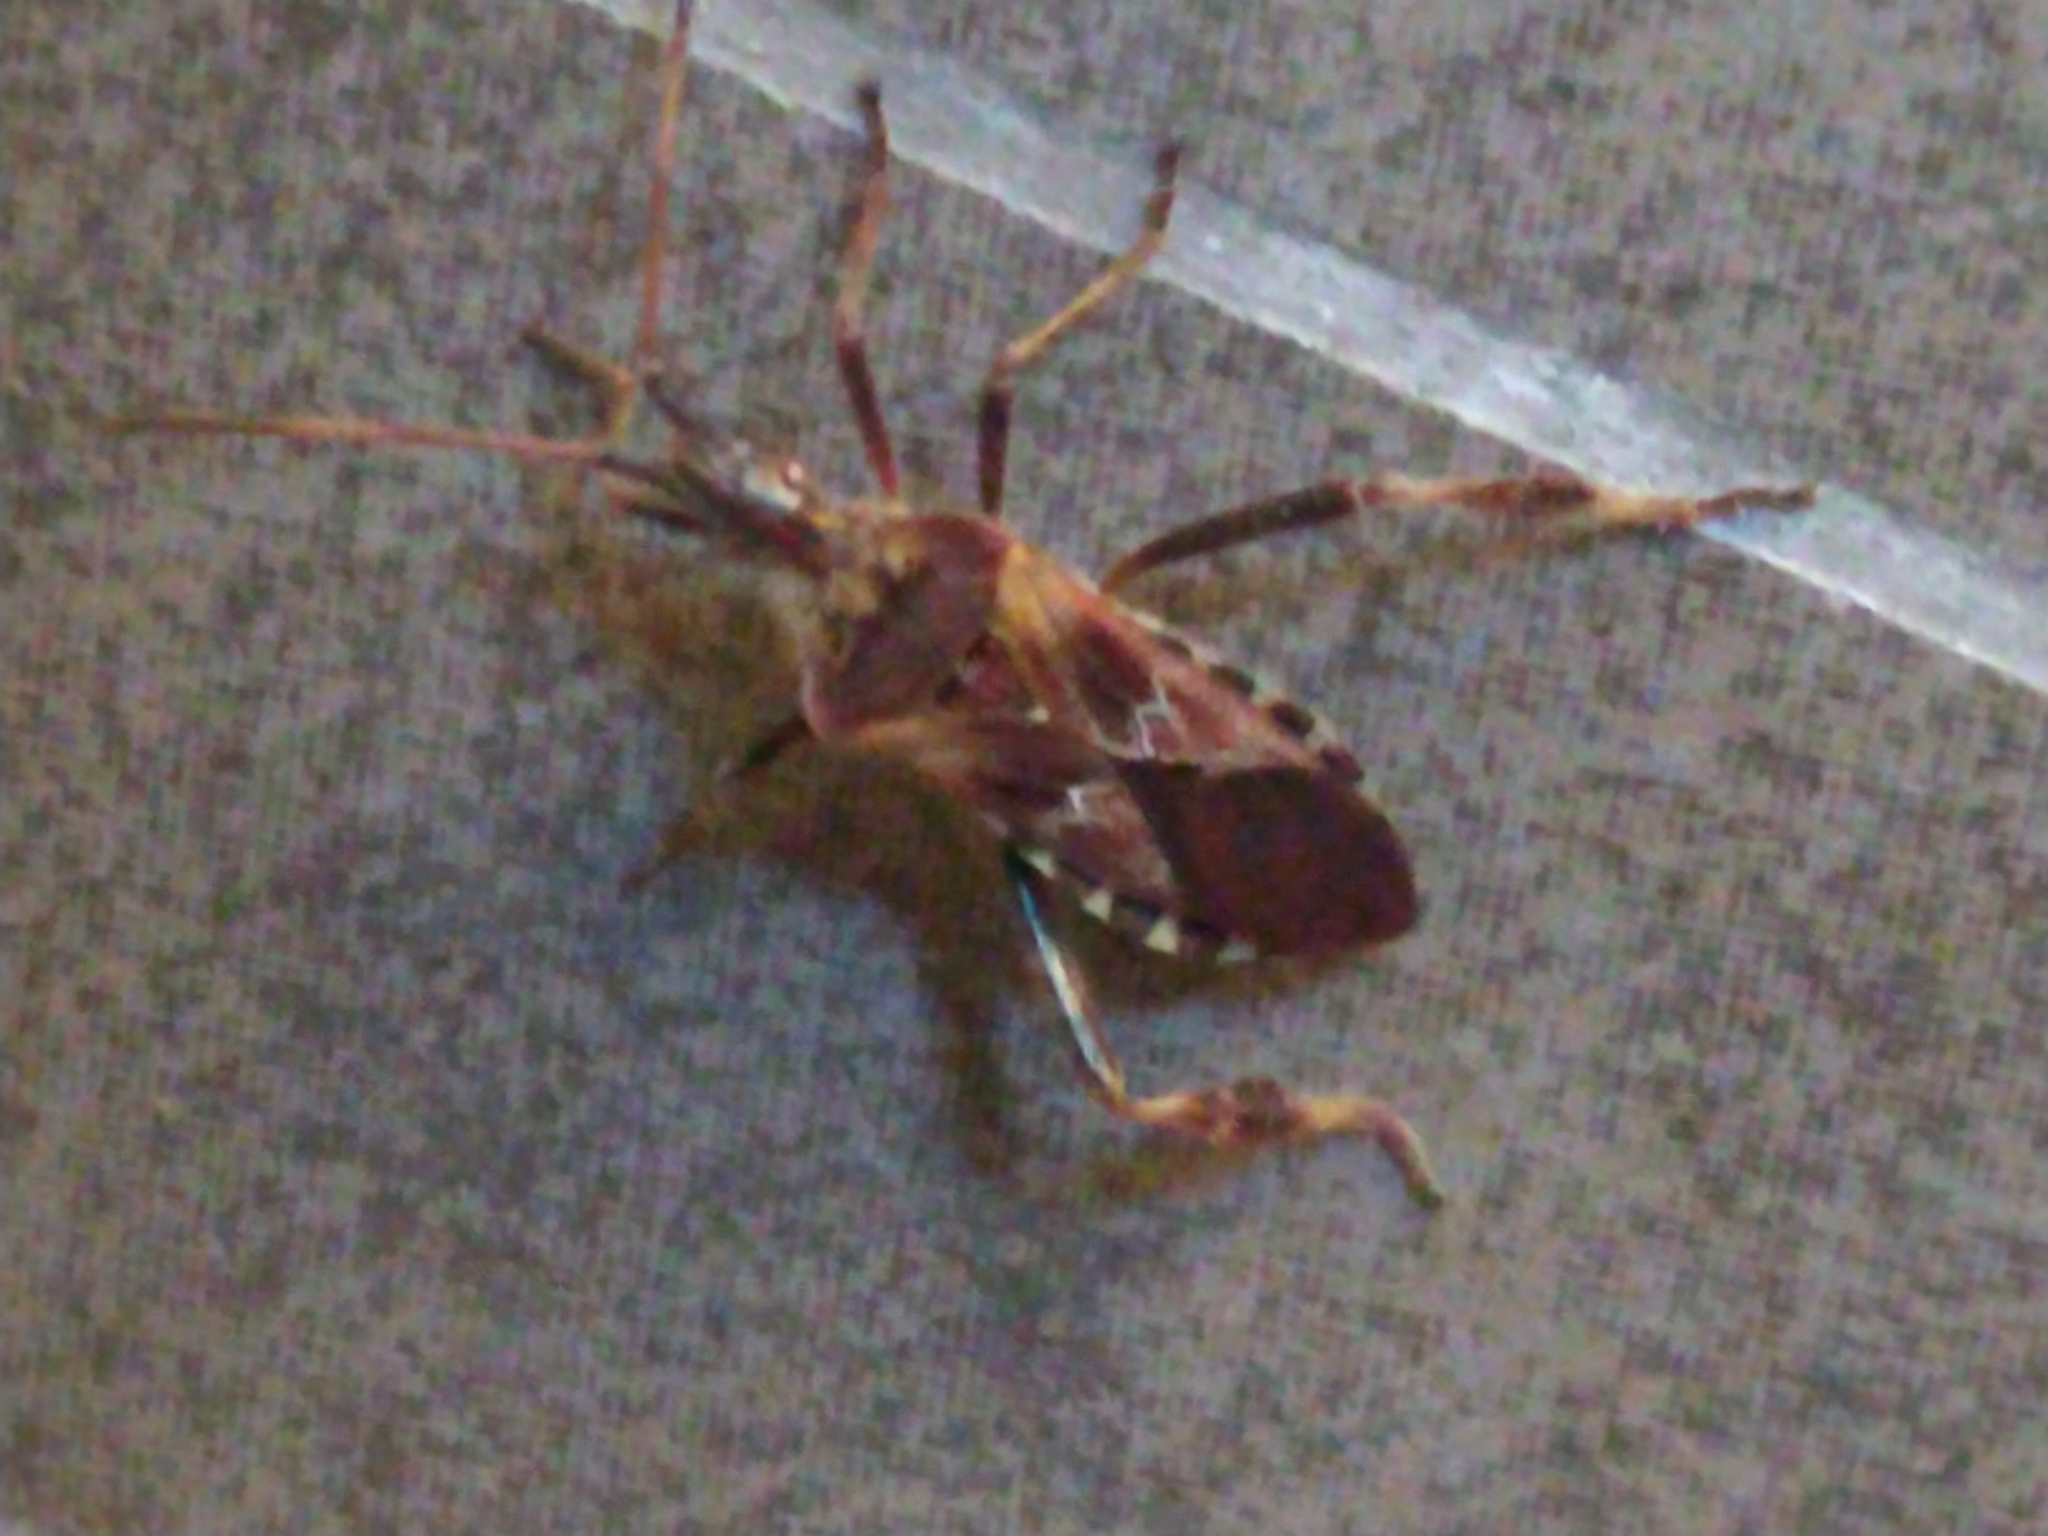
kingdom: Animalia
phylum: Arthropoda
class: Insecta
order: Hemiptera
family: Coreidae
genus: Leptoglossus
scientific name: Leptoglossus occidentalis
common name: Western conifer-seed bug
